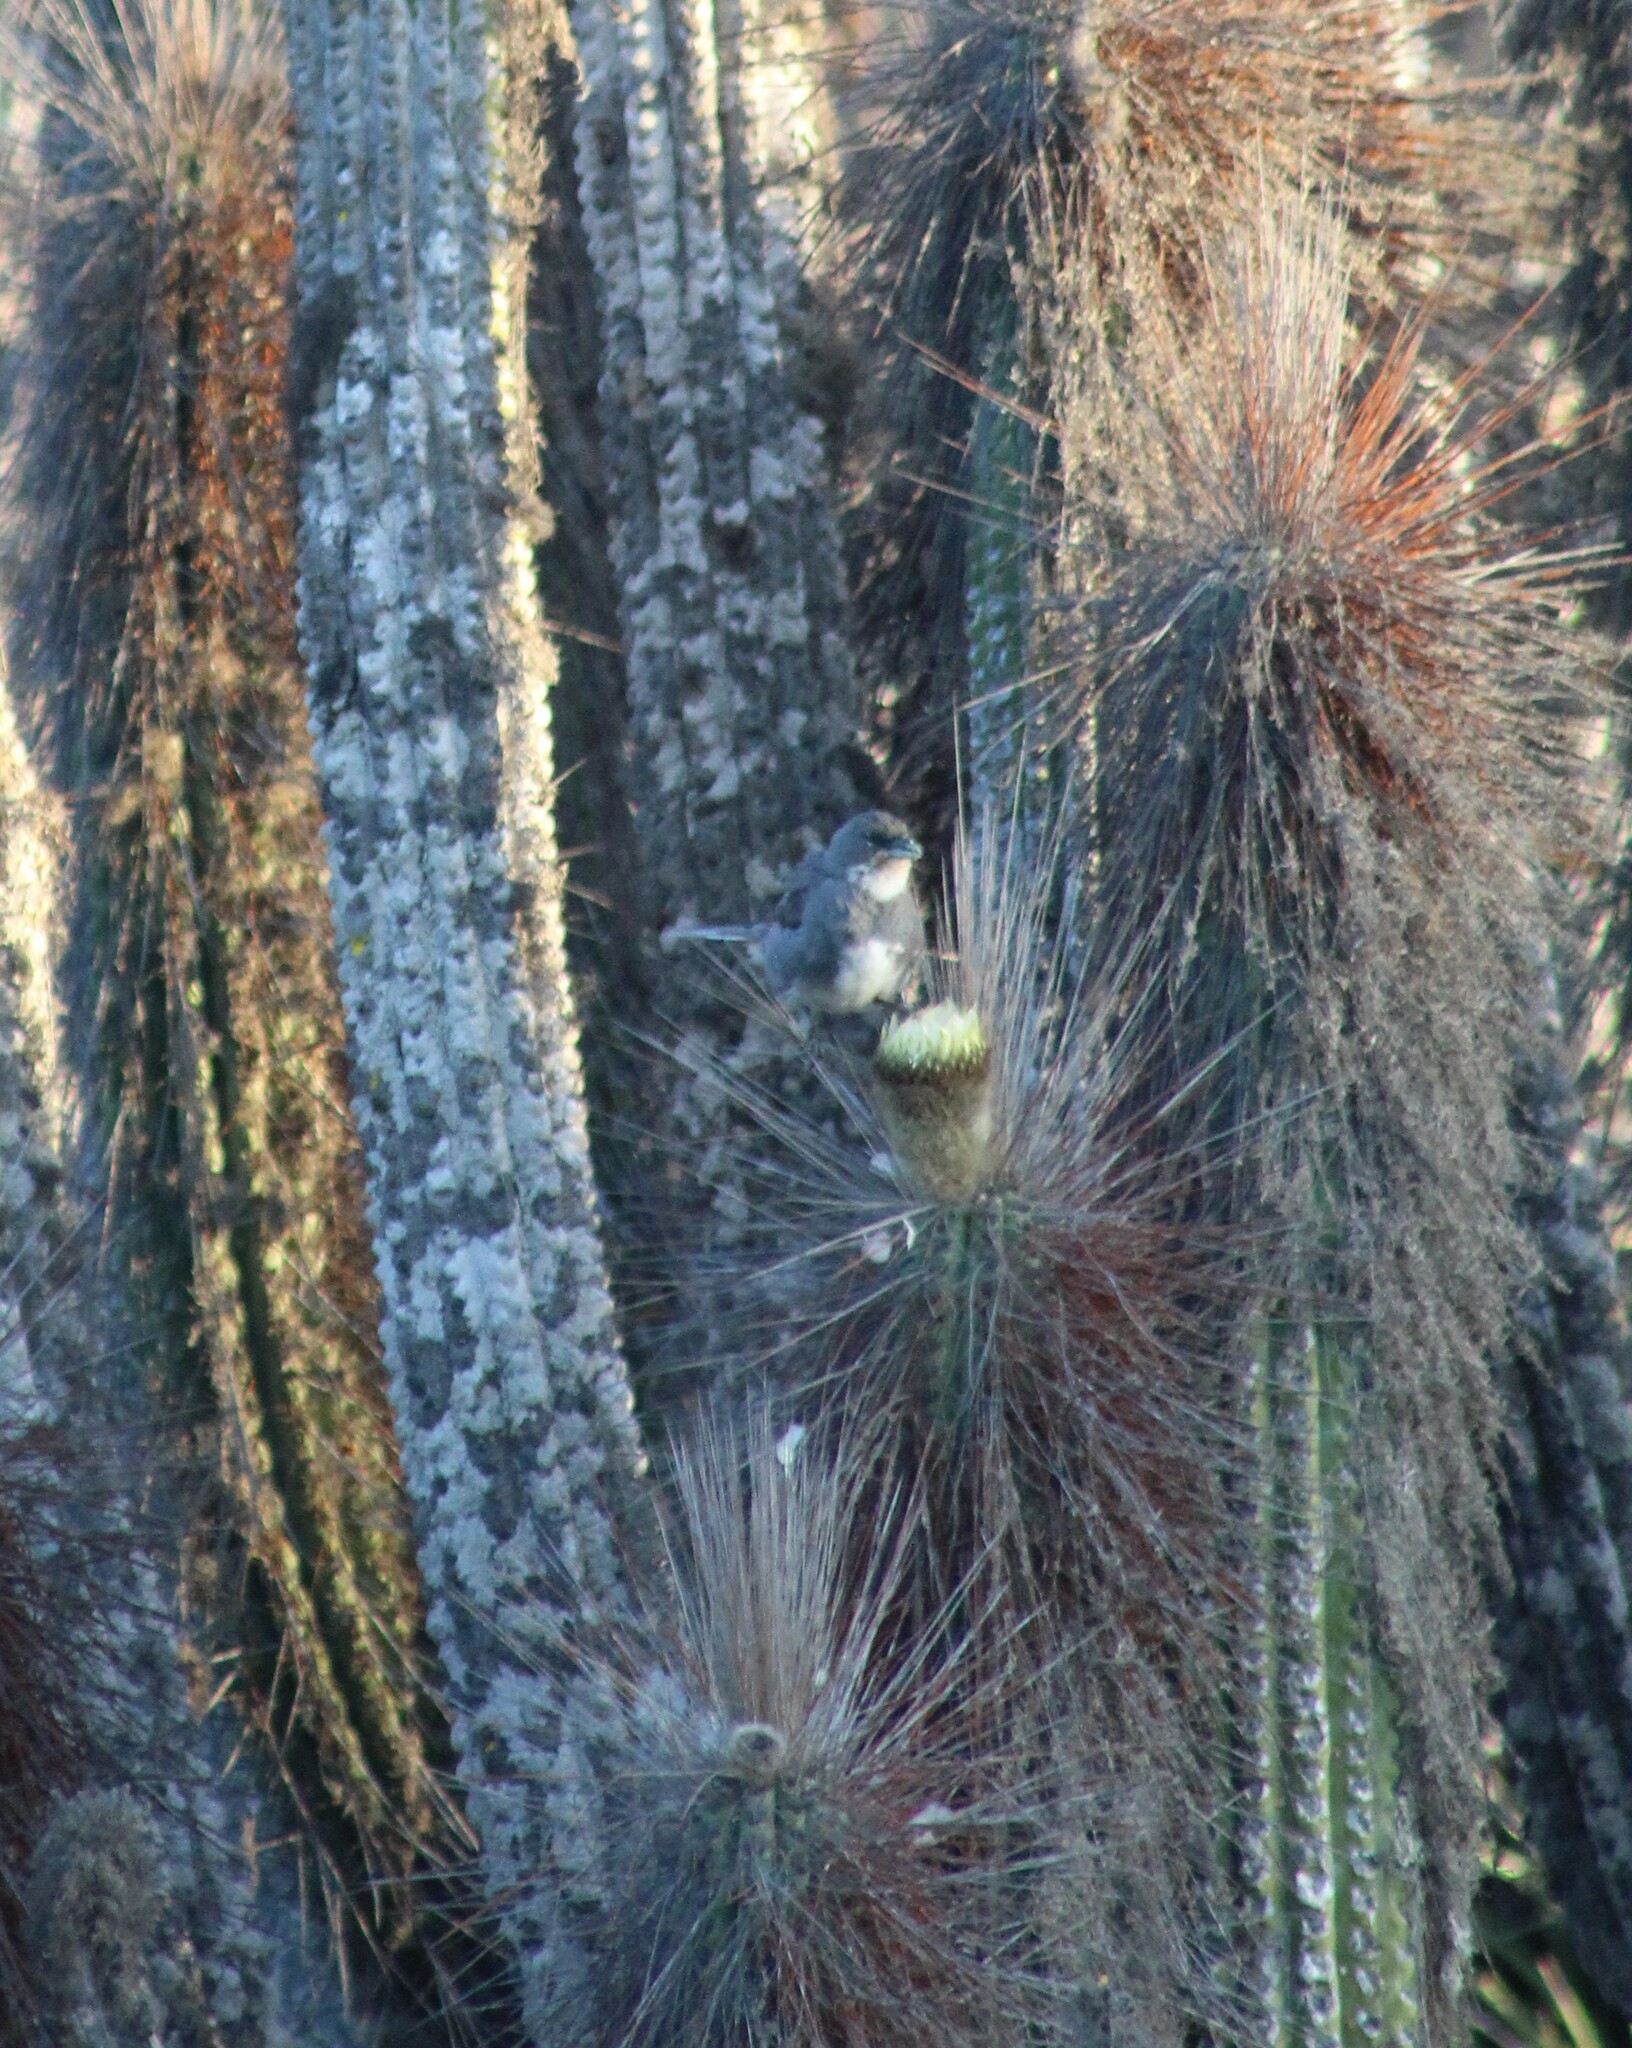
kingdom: Animalia
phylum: Chordata
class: Aves
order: Passeriformes
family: Thraupidae
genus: Diuca
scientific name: Diuca diuca
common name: Common diuca finch
